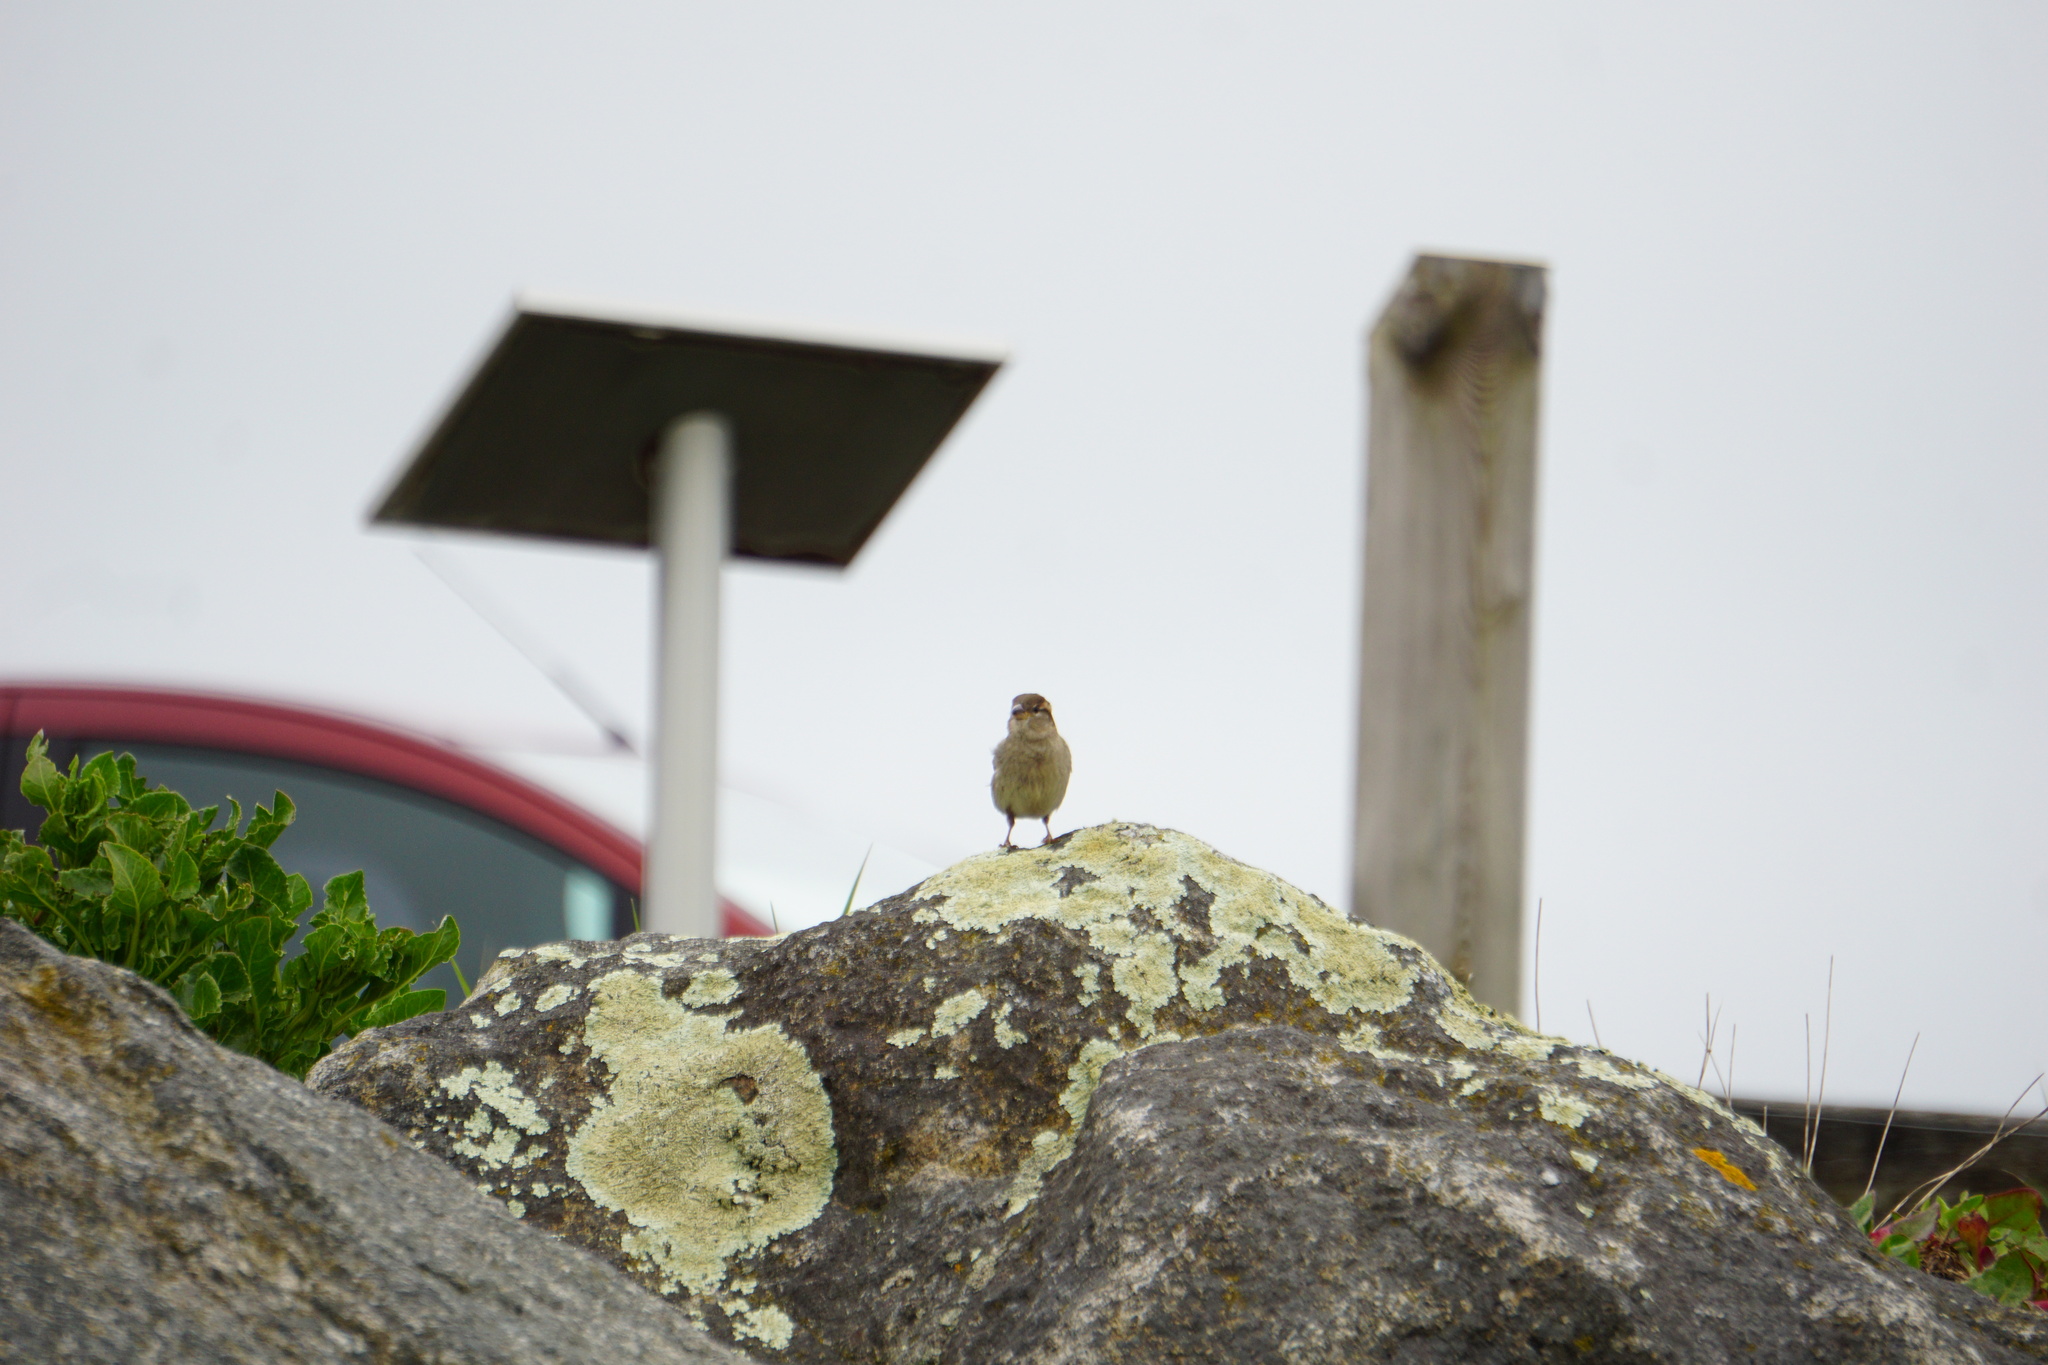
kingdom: Animalia
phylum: Chordata
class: Aves
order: Passeriformes
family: Passeridae
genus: Passer
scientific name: Passer domesticus
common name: House sparrow
